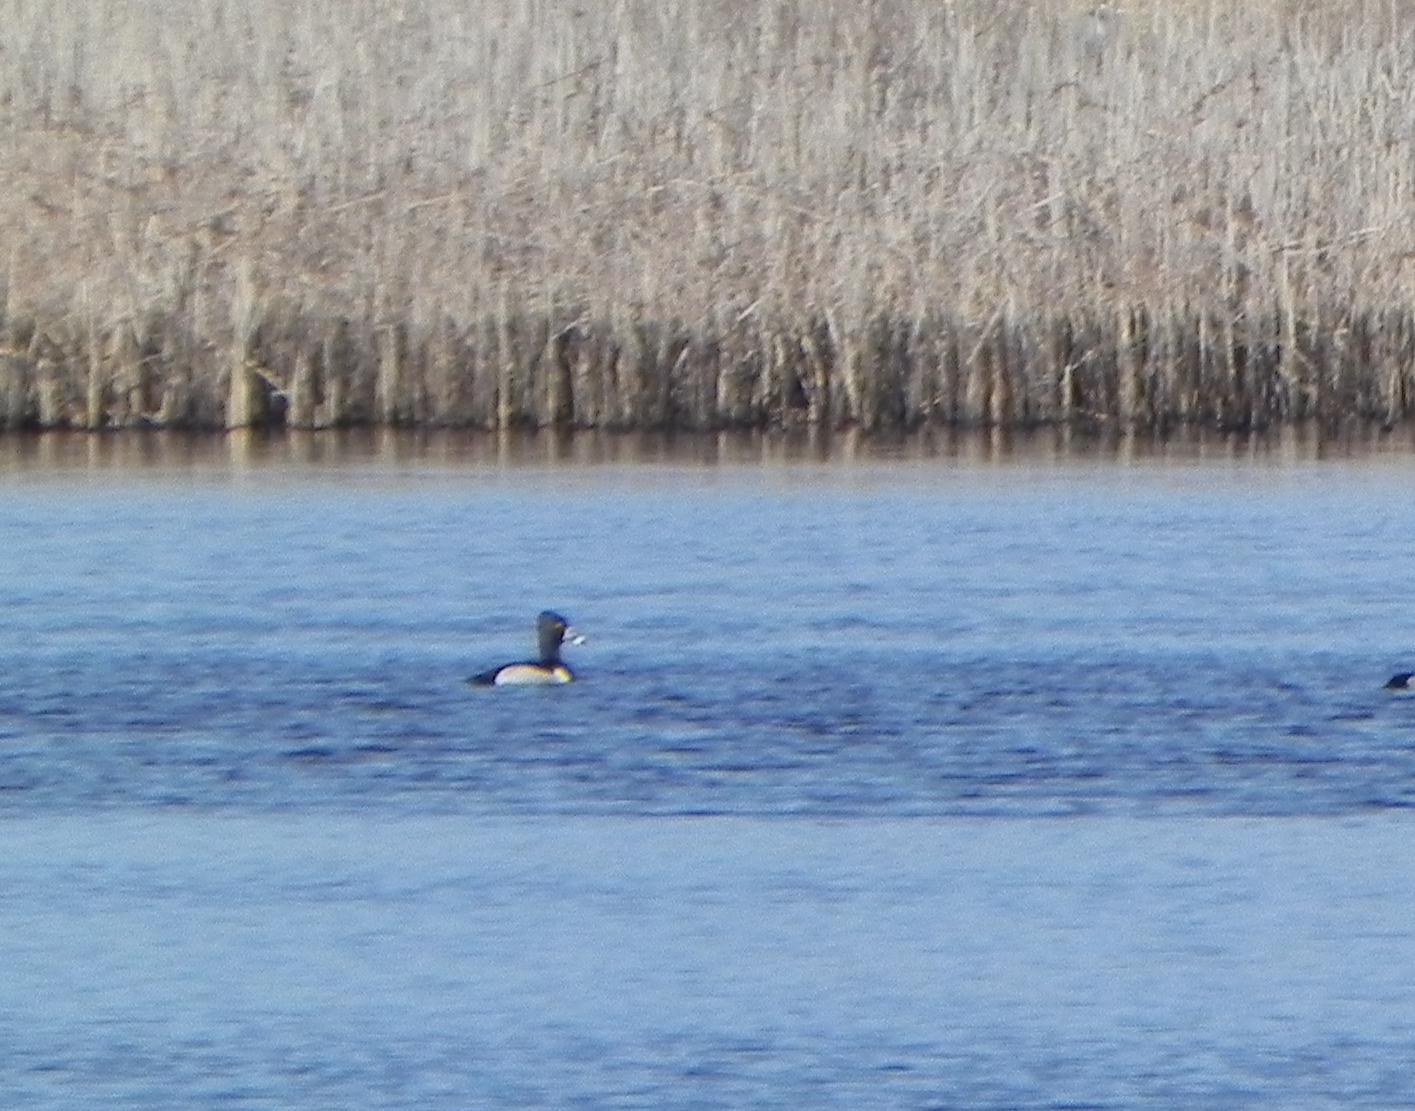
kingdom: Animalia
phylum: Chordata
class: Aves
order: Anseriformes
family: Anatidae
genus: Aythya
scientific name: Aythya collaris
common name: Ring-necked duck
